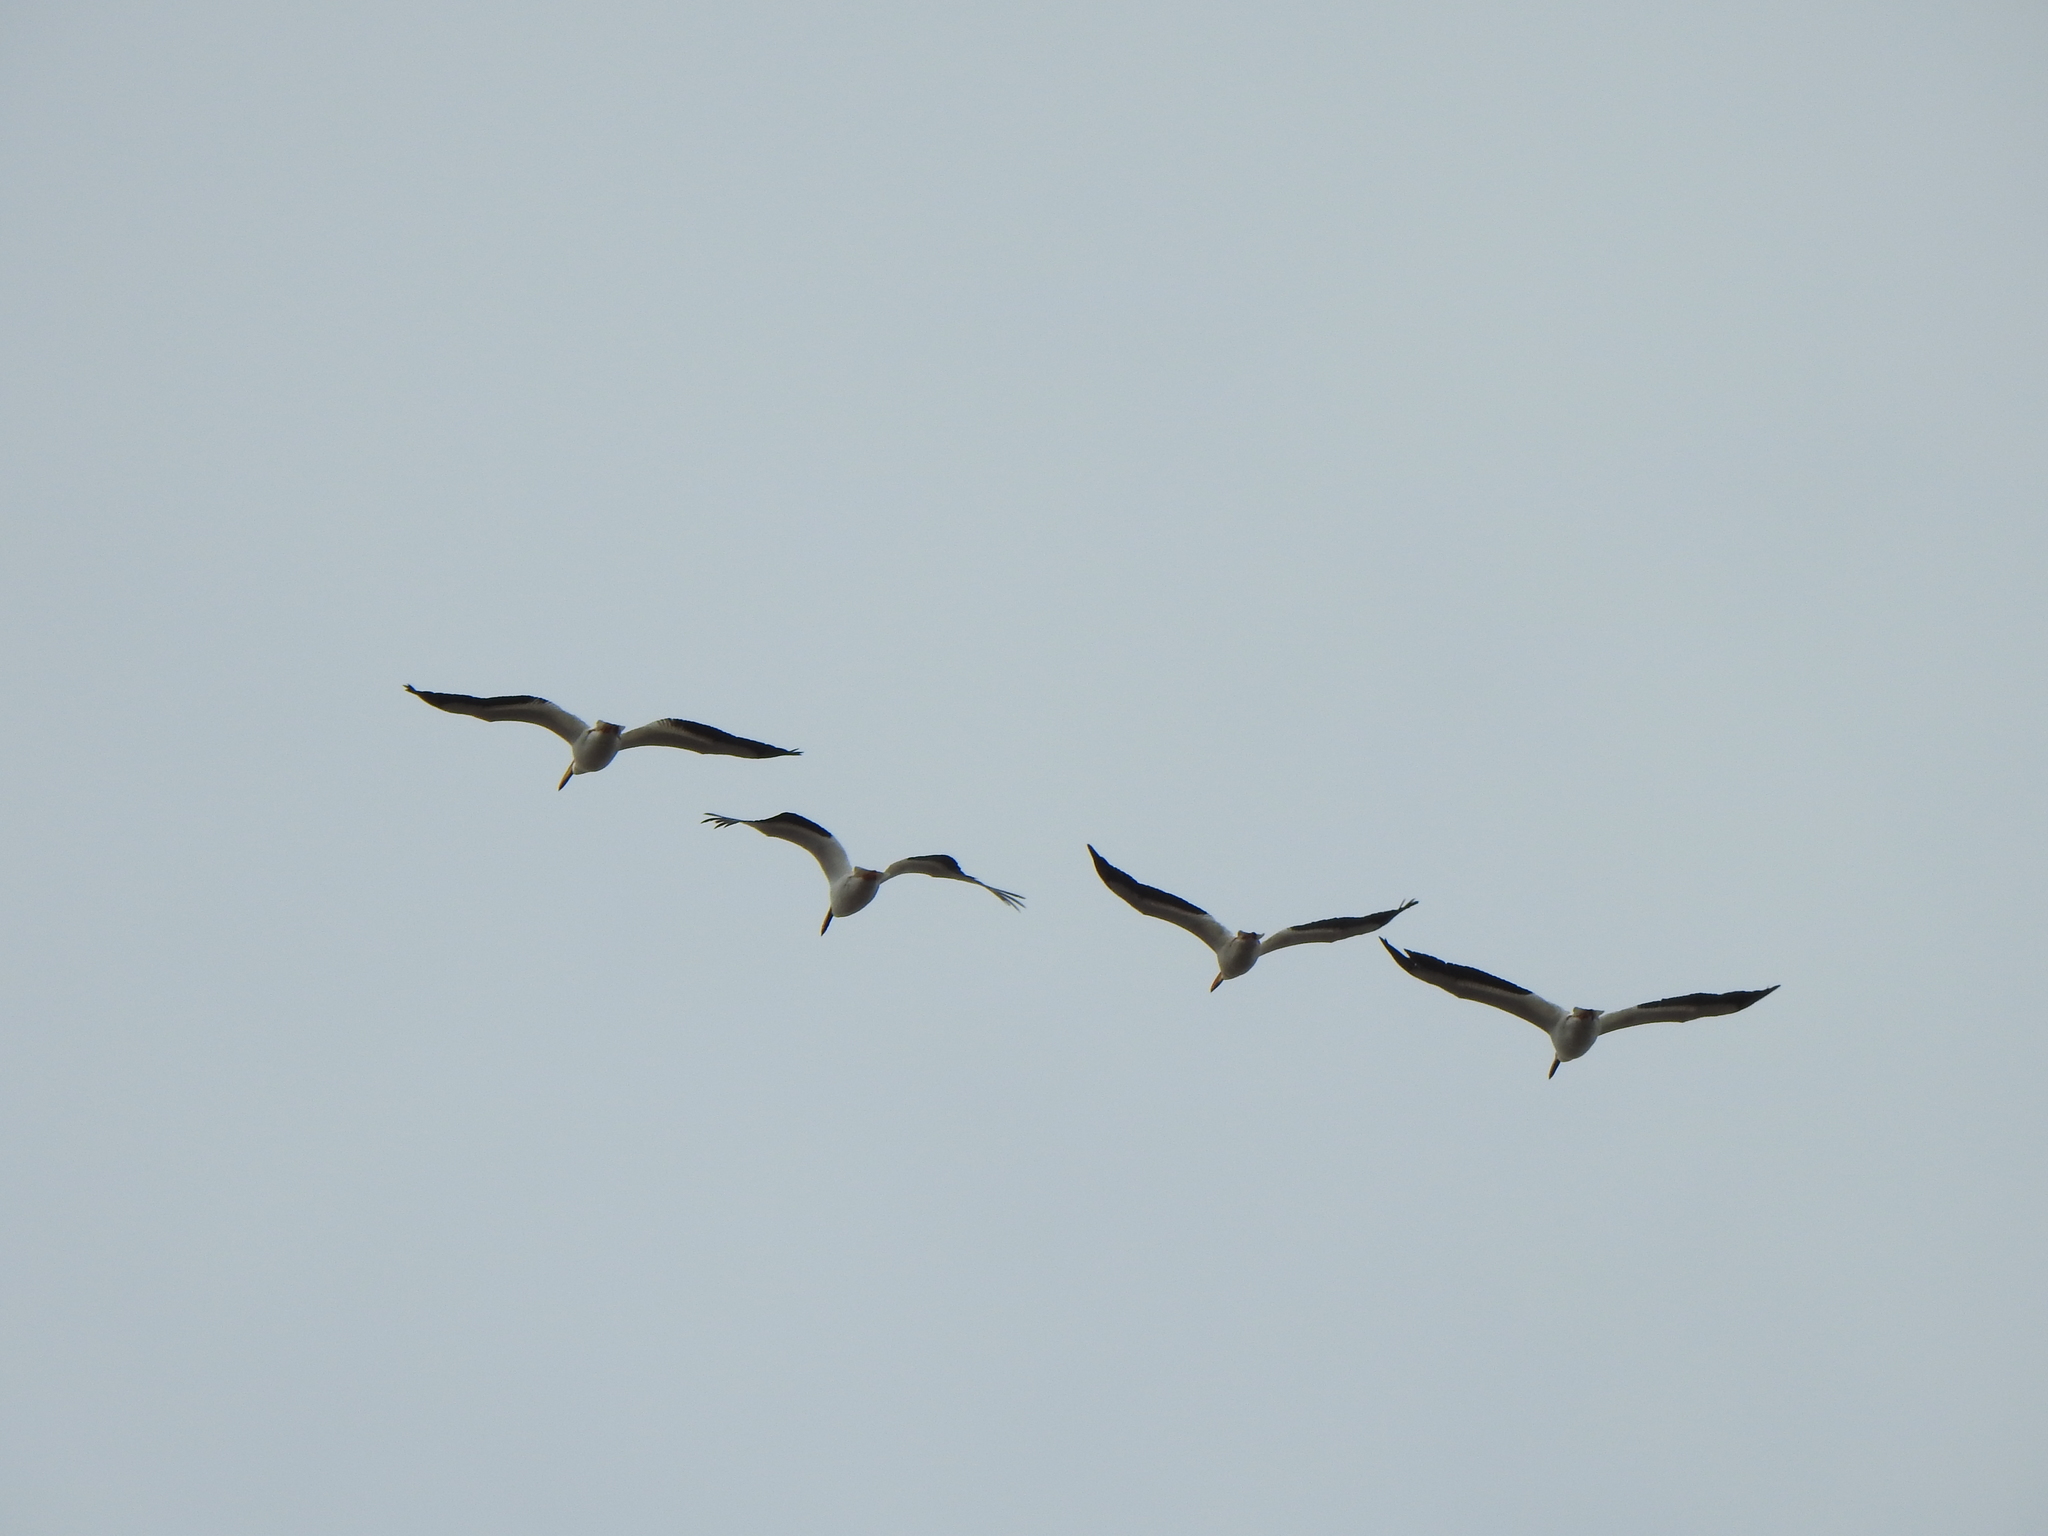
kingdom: Animalia
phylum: Chordata
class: Aves
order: Pelecaniformes
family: Pelecanidae
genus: Pelecanus
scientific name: Pelecanus erythrorhynchos
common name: American white pelican
